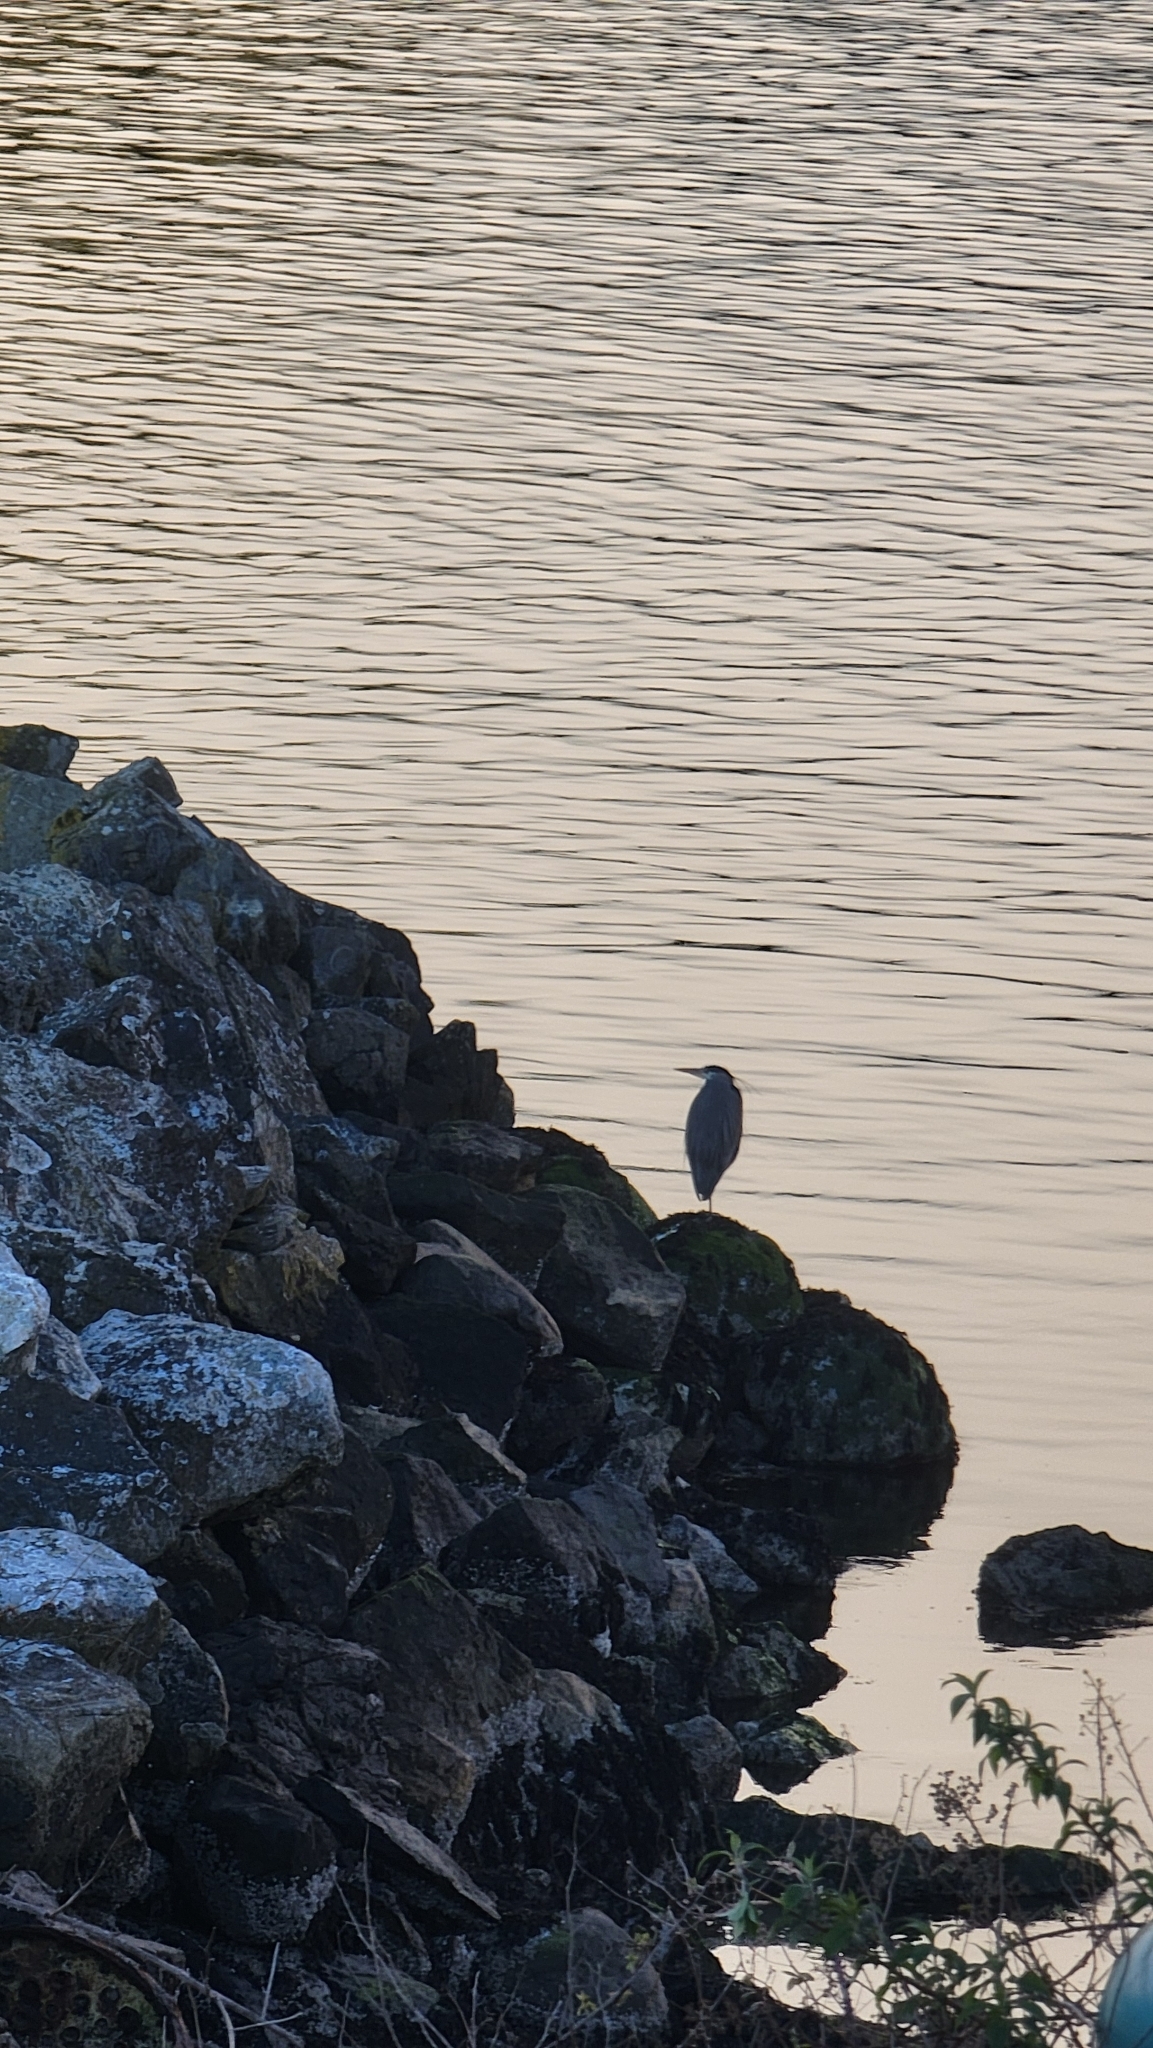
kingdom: Animalia
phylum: Chordata
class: Aves
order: Pelecaniformes
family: Ardeidae
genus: Ardea
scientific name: Ardea herodias
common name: Great blue heron
